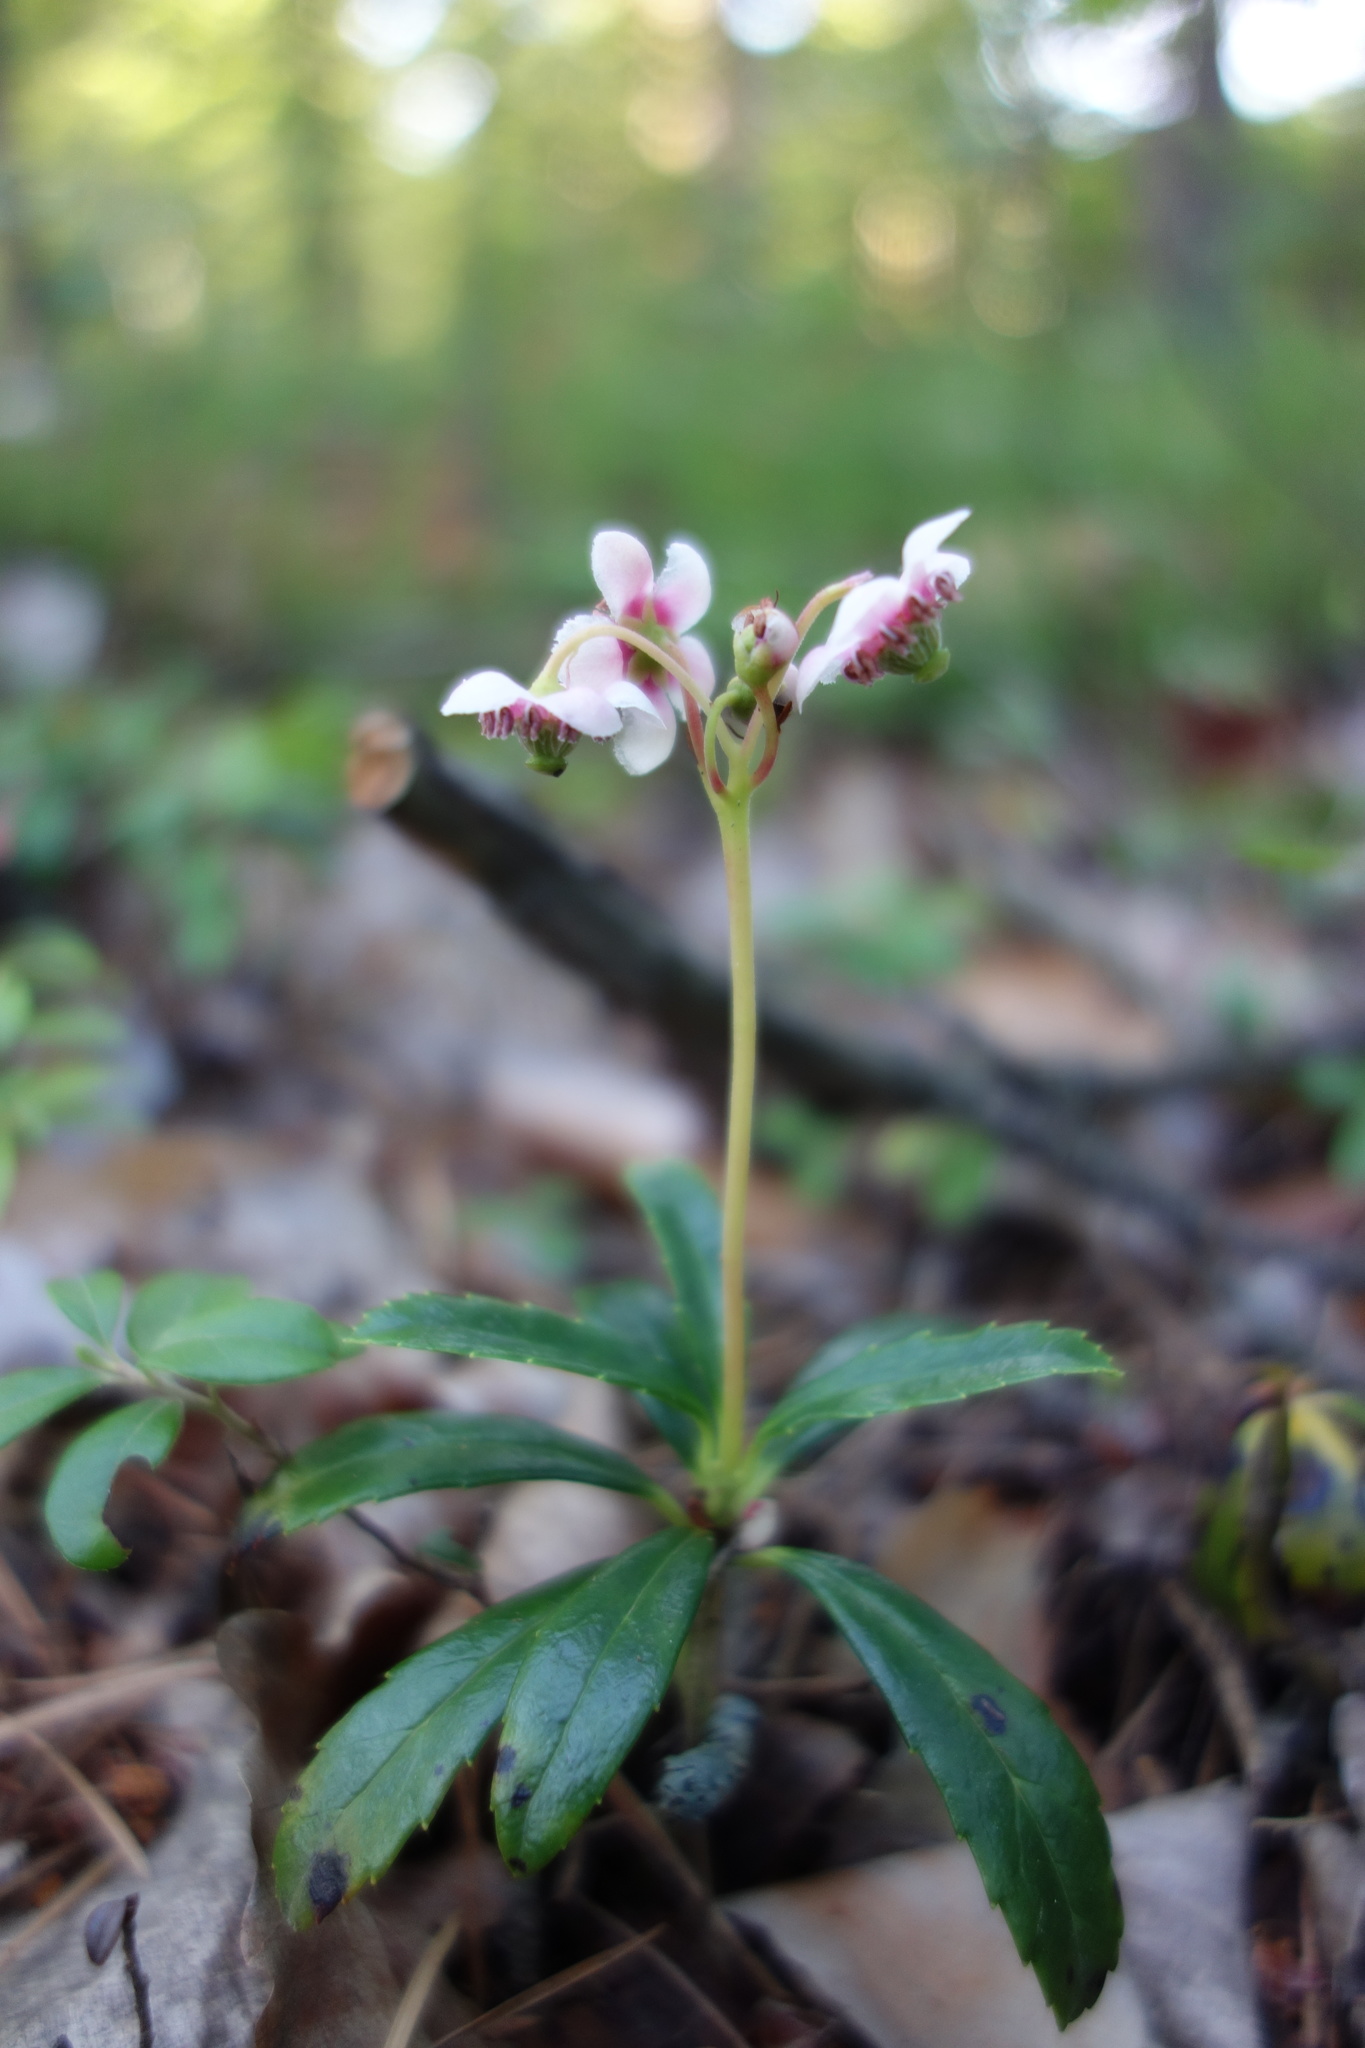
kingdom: Plantae
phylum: Tracheophyta
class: Magnoliopsida
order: Ericales
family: Ericaceae
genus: Chimaphila
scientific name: Chimaphila umbellata
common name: Pipsissewa
